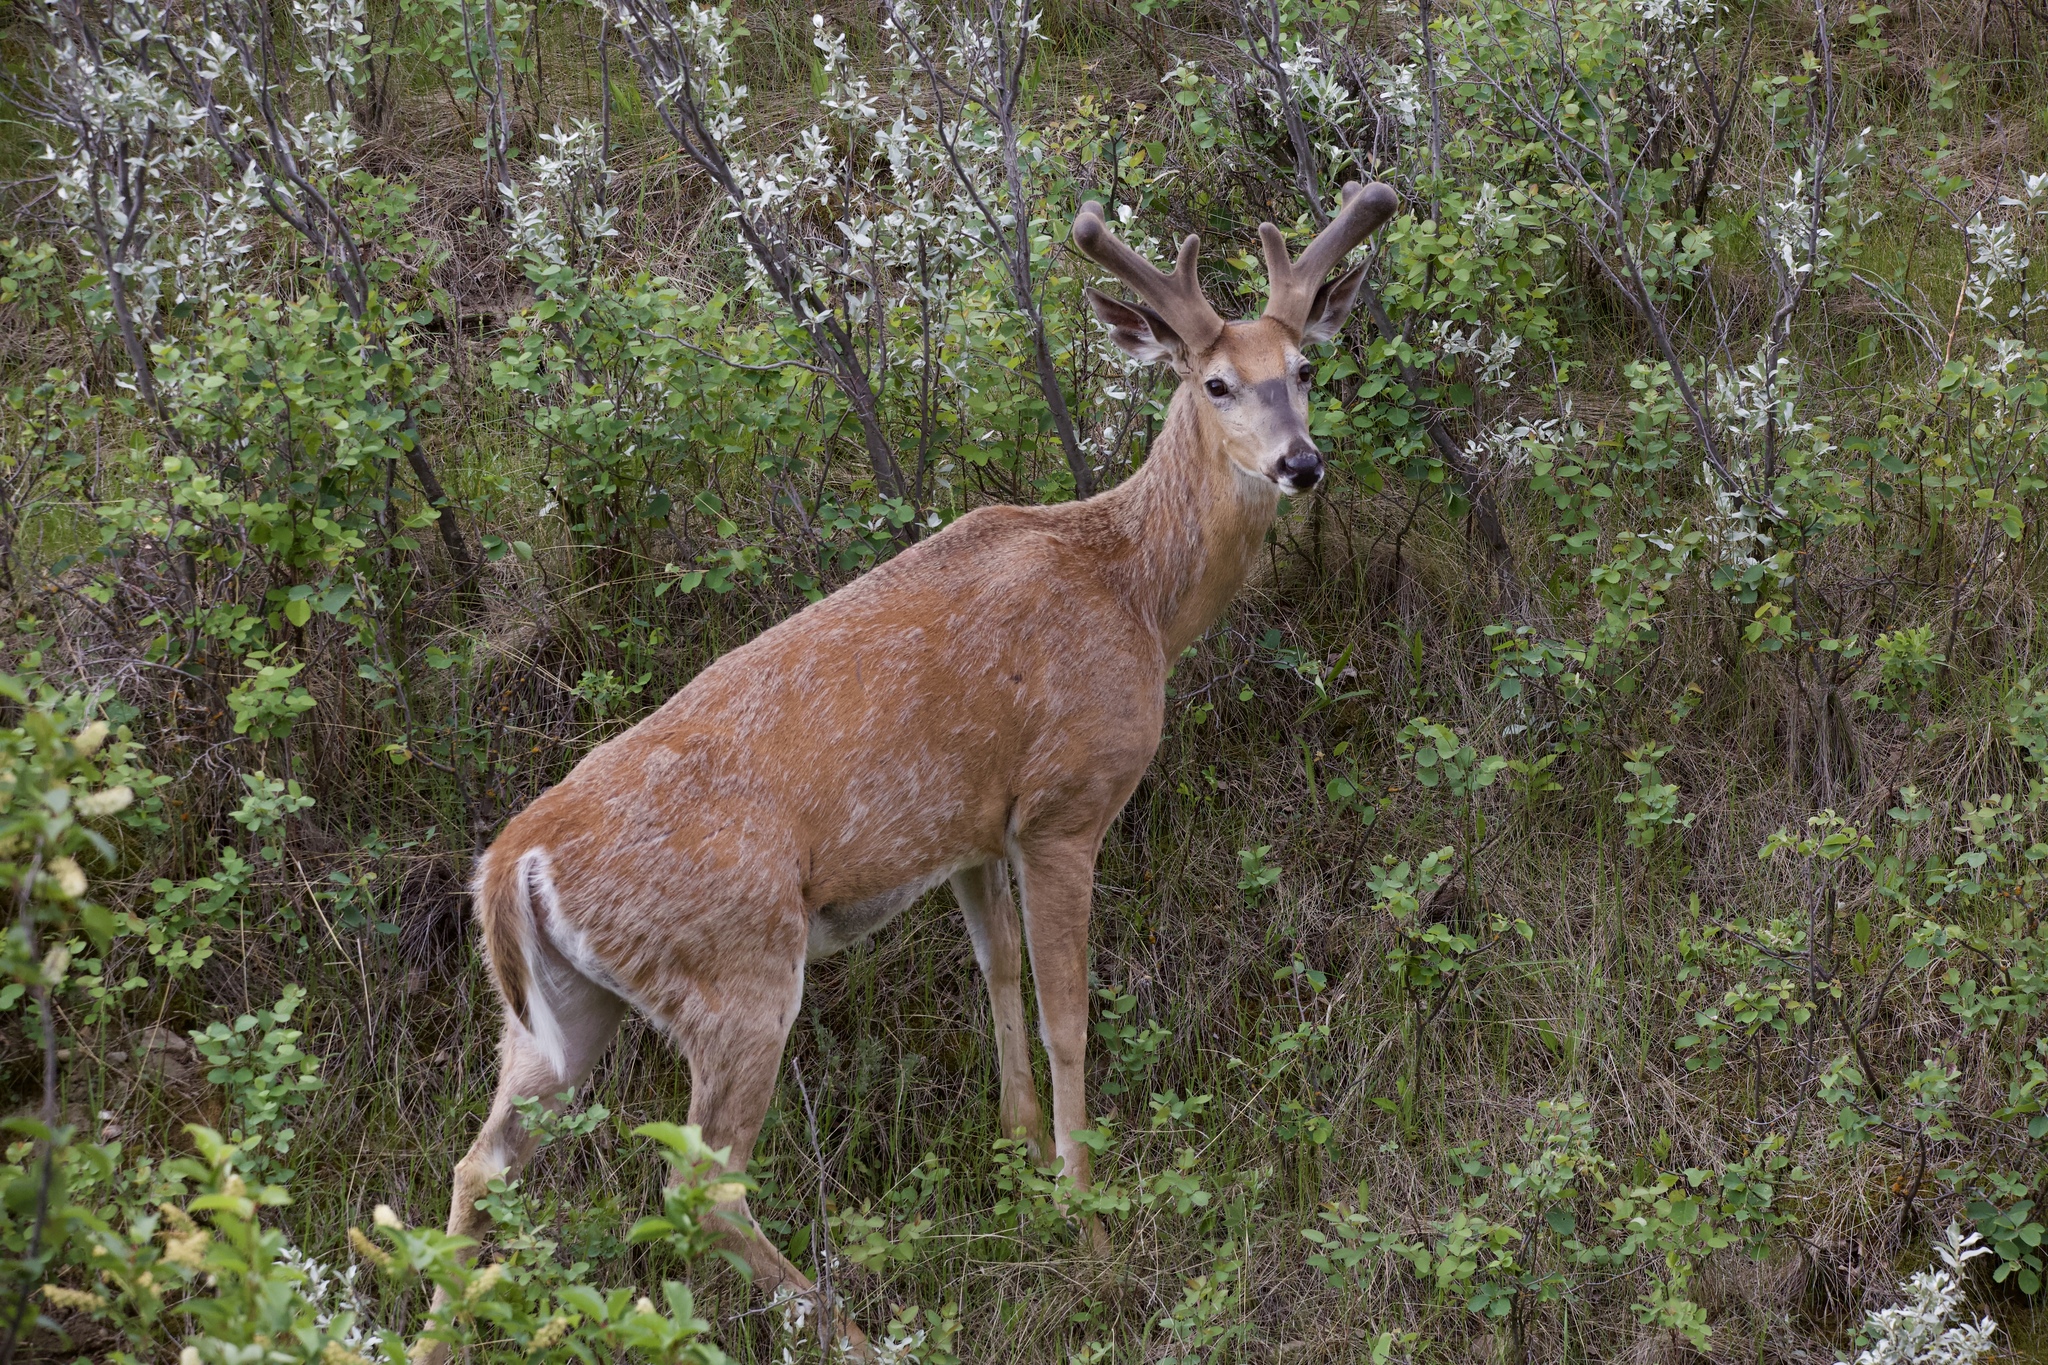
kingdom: Animalia
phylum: Chordata
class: Mammalia
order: Artiodactyla
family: Cervidae
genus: Odocoileus
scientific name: Odocoileus virginianus
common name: White-tailed deer
